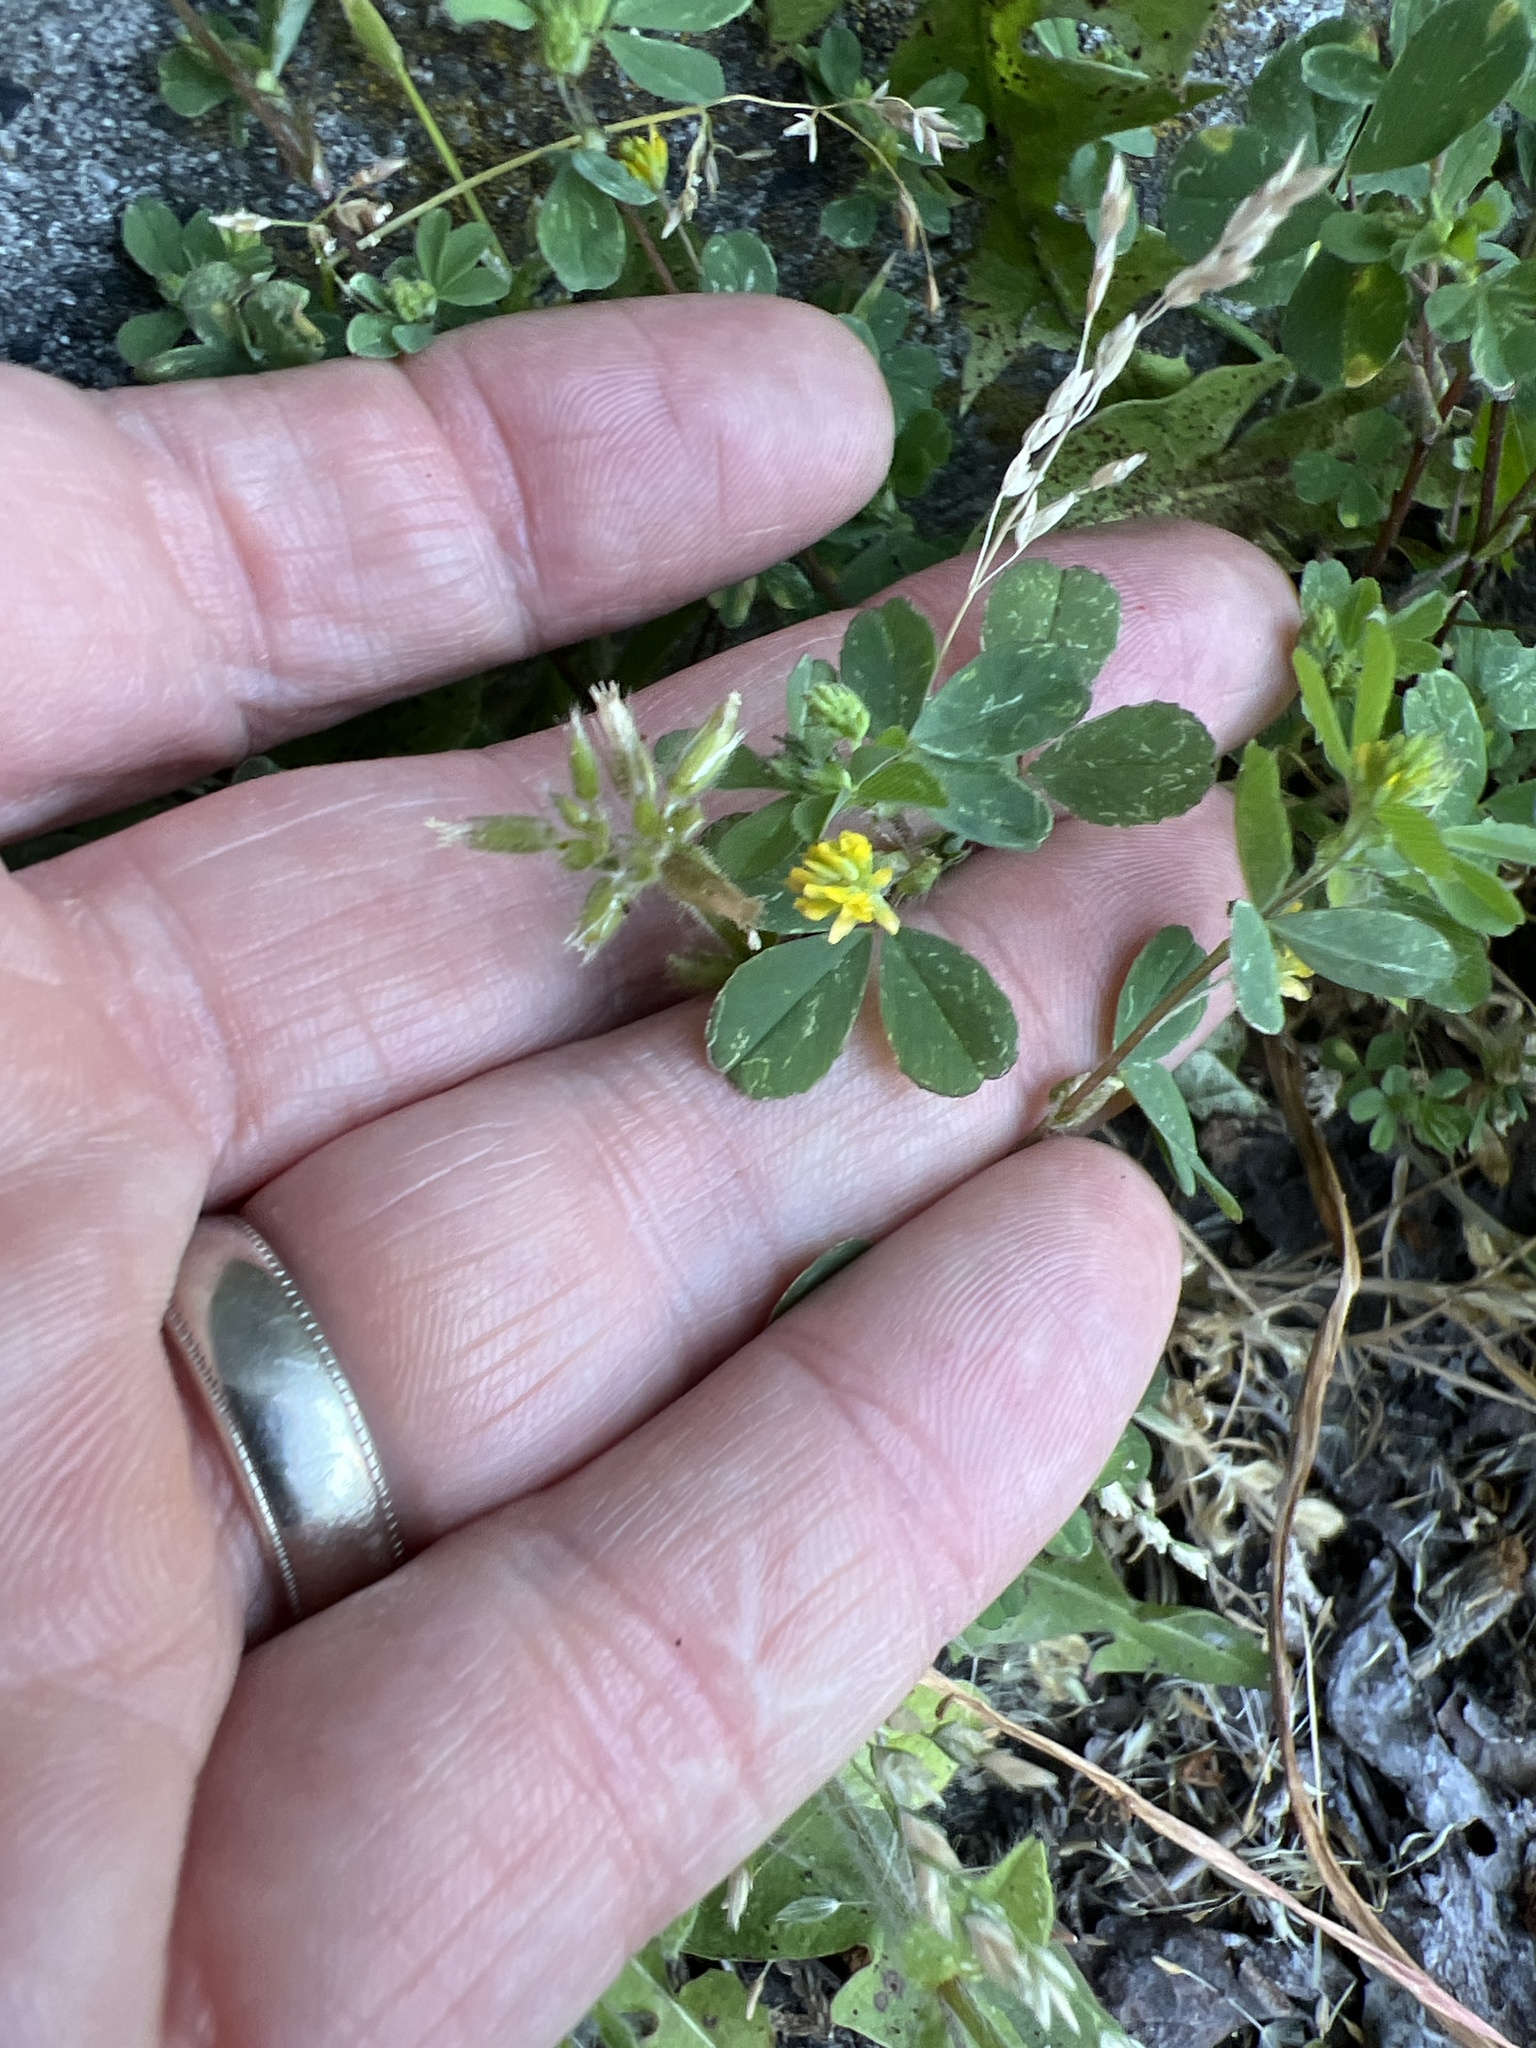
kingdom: Plantae
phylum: Tracheophyta
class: Magnoliopsida
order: Fabales
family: Fabaceae
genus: Trifolium
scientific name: Trifolium dubium
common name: Suckling clover
